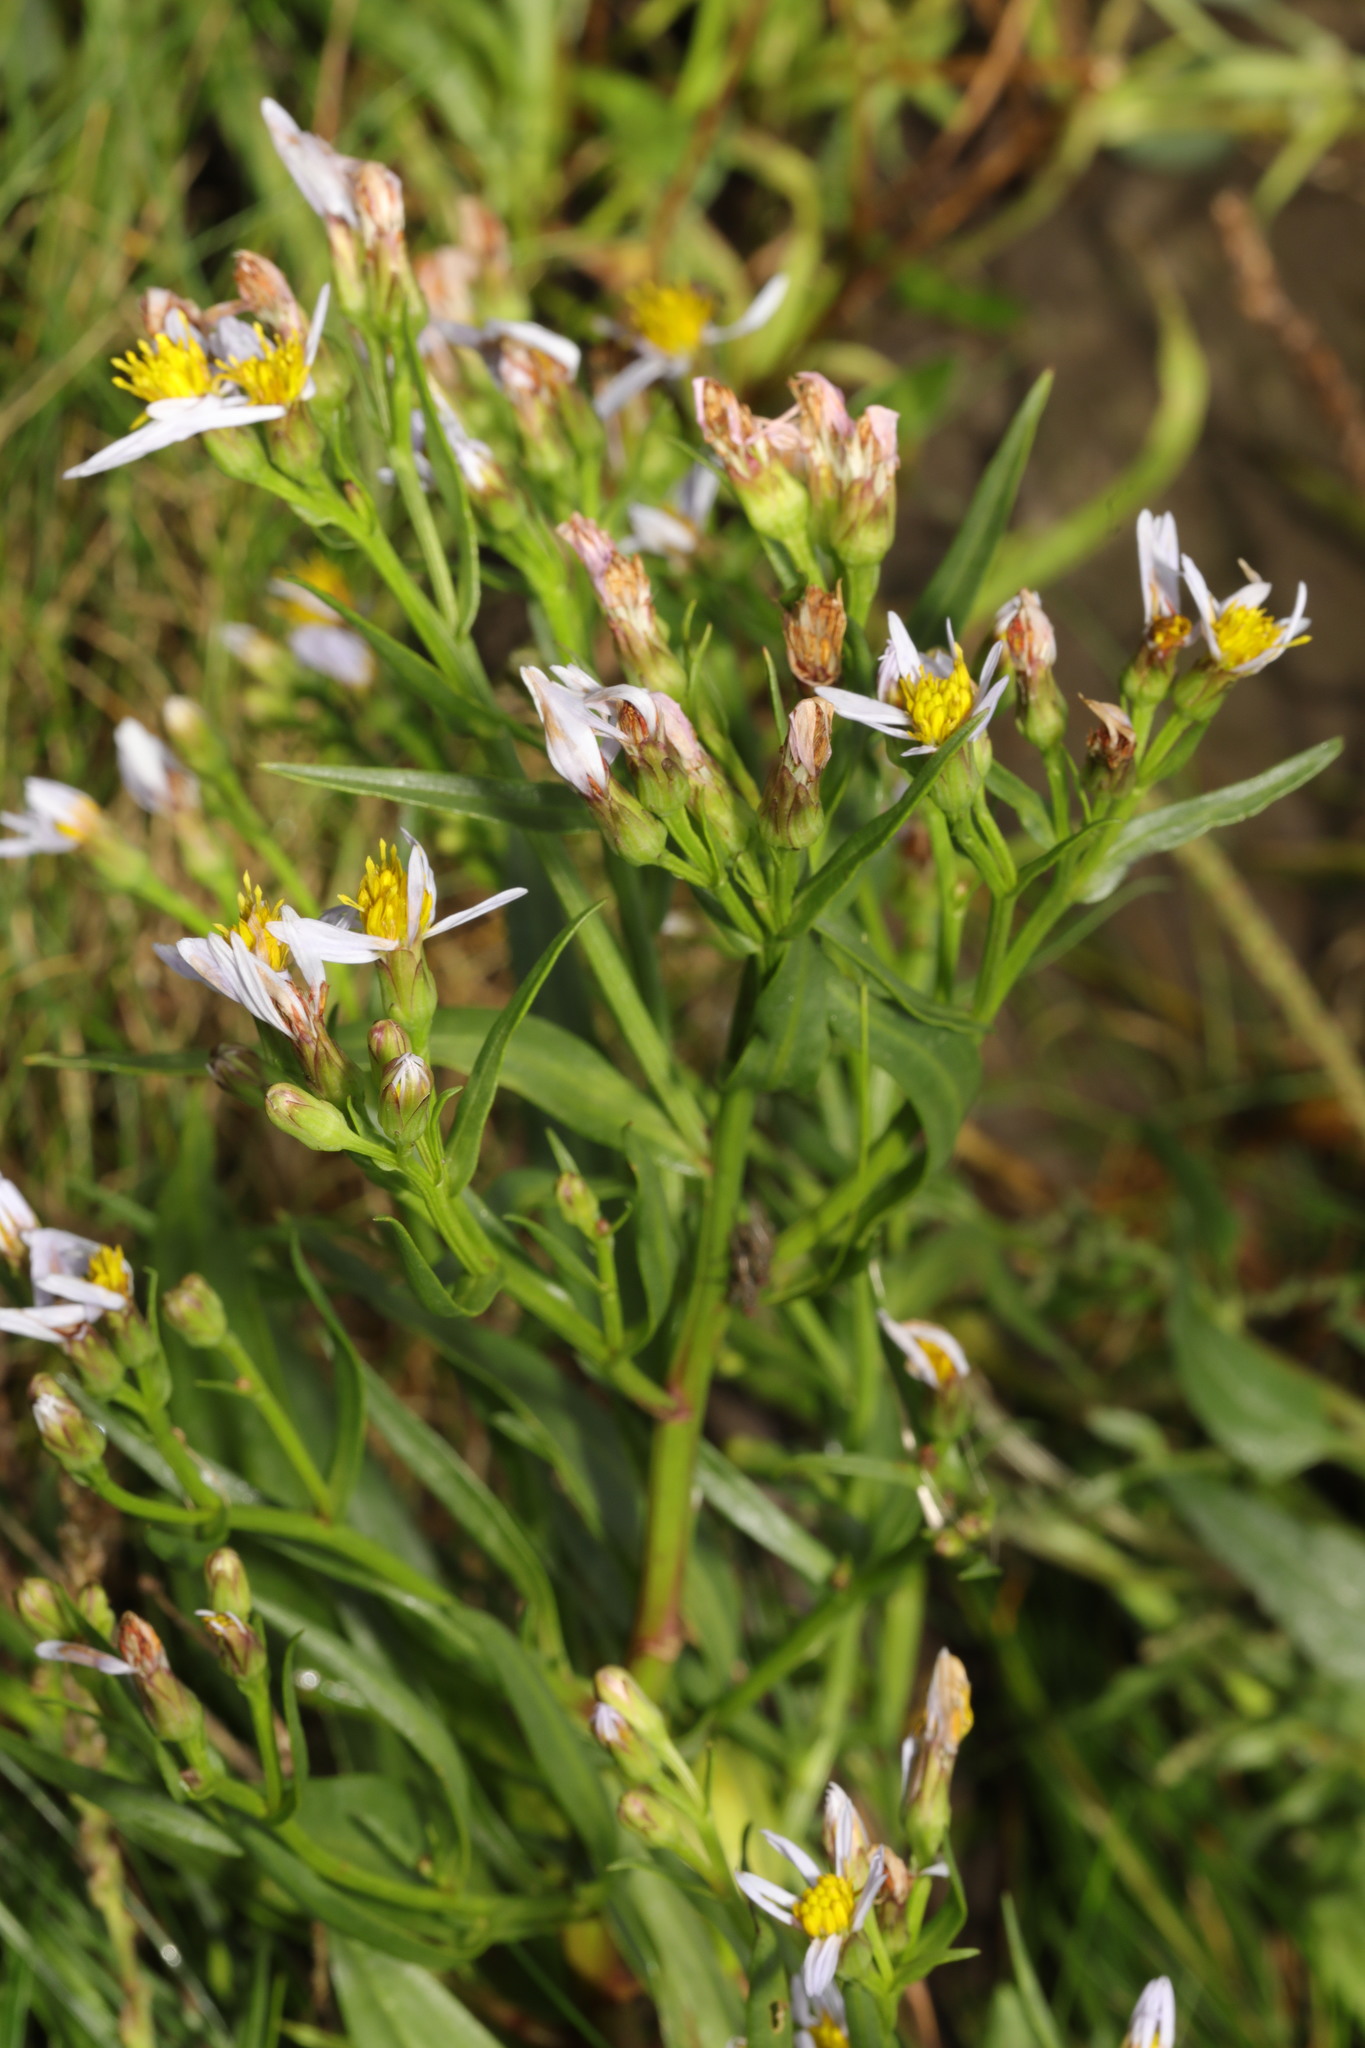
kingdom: Plantae
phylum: Tracheophyta
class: Magnoliopsida
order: Asterales
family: Asteraceae
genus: Tripolium
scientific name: Tripolium pannonicum
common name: Sea aster
